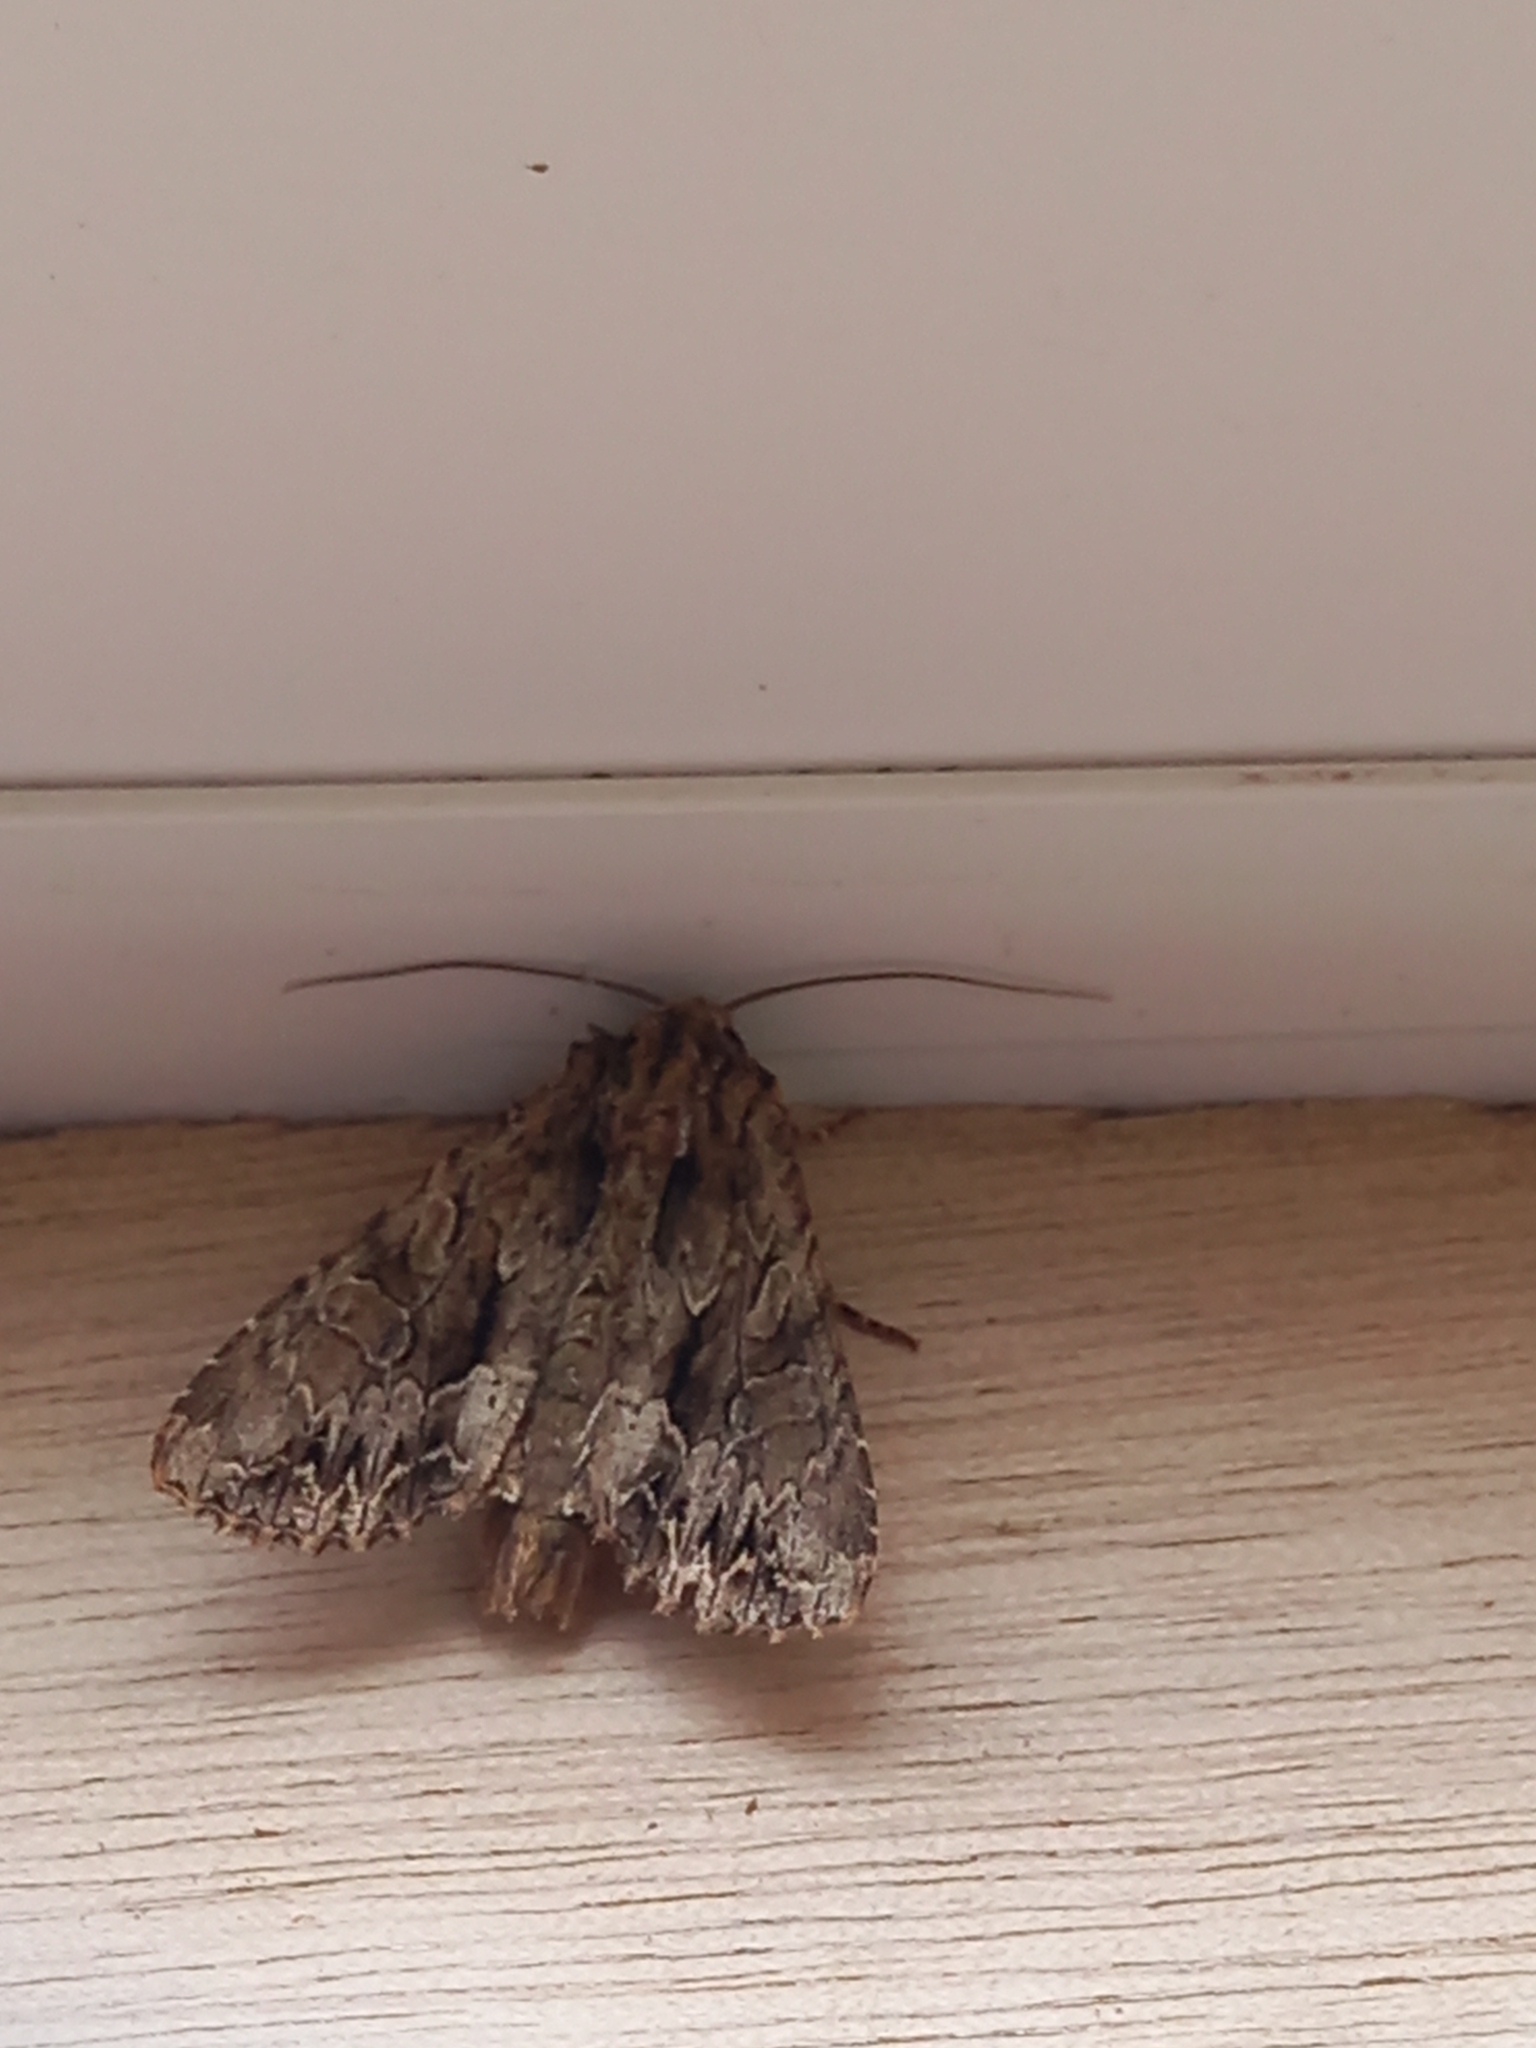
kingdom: Animalia
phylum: Arthropoda
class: Insecta
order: Lepidoptera
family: Noctuidae
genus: Apamea
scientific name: Apamea monoglypha
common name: Dark arches
